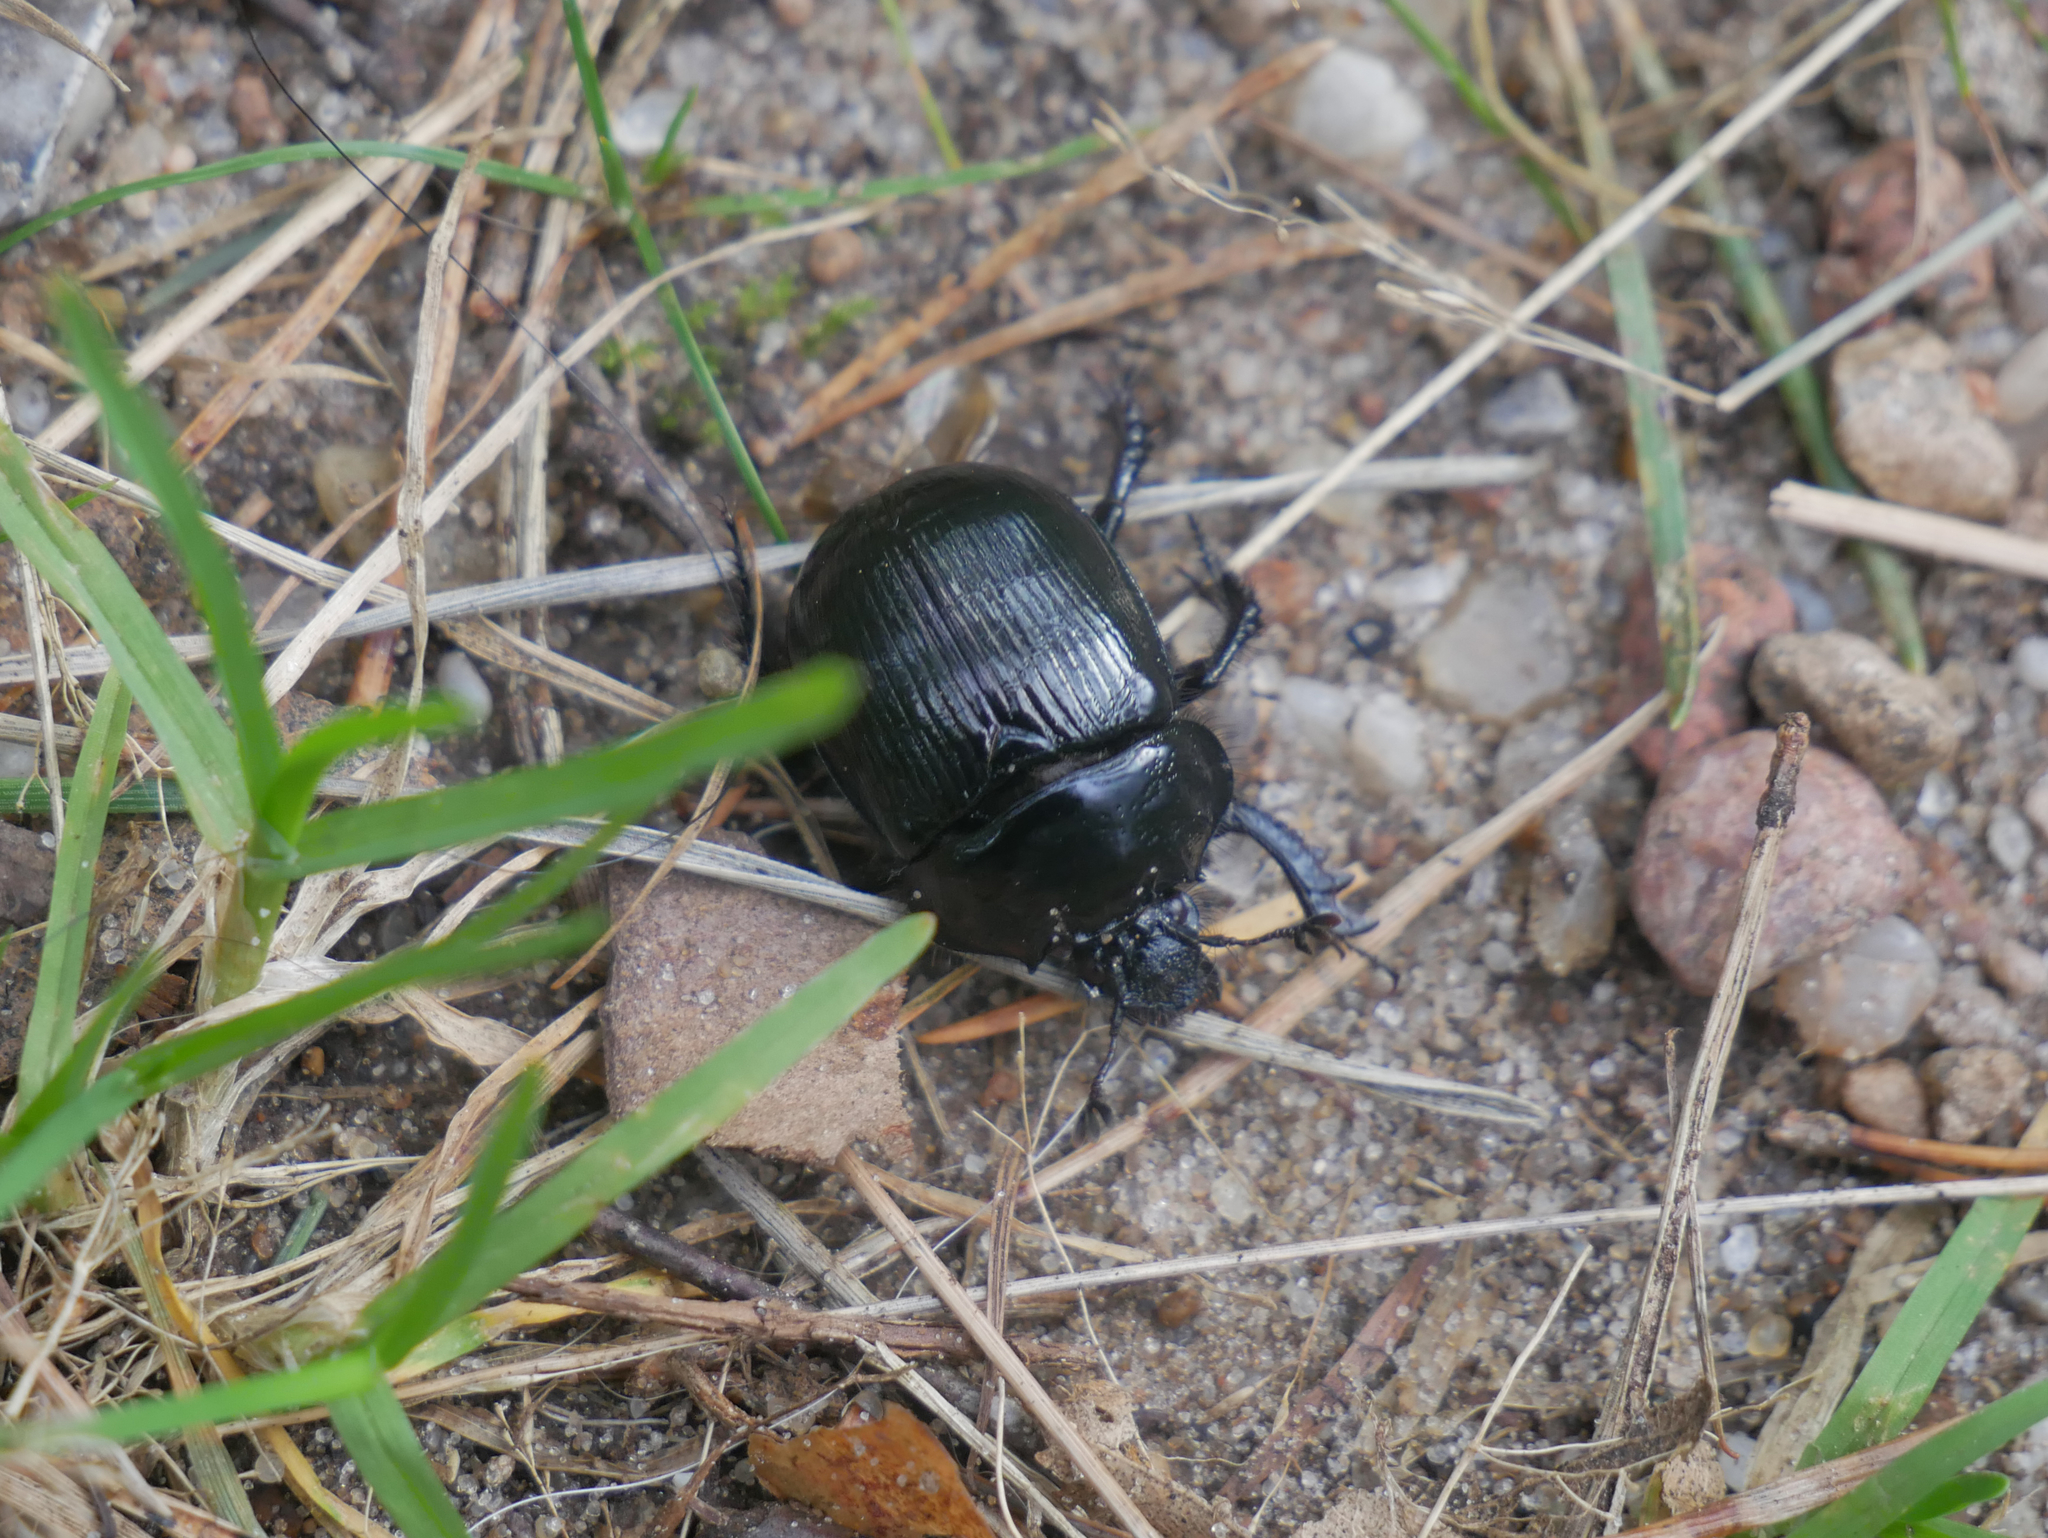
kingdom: Animalia
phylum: Arthropoda
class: Insecta
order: Coleoptera
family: Geotrupidae
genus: Typhaeus
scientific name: Typhaeus typhoeus
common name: Minotaur beetle
